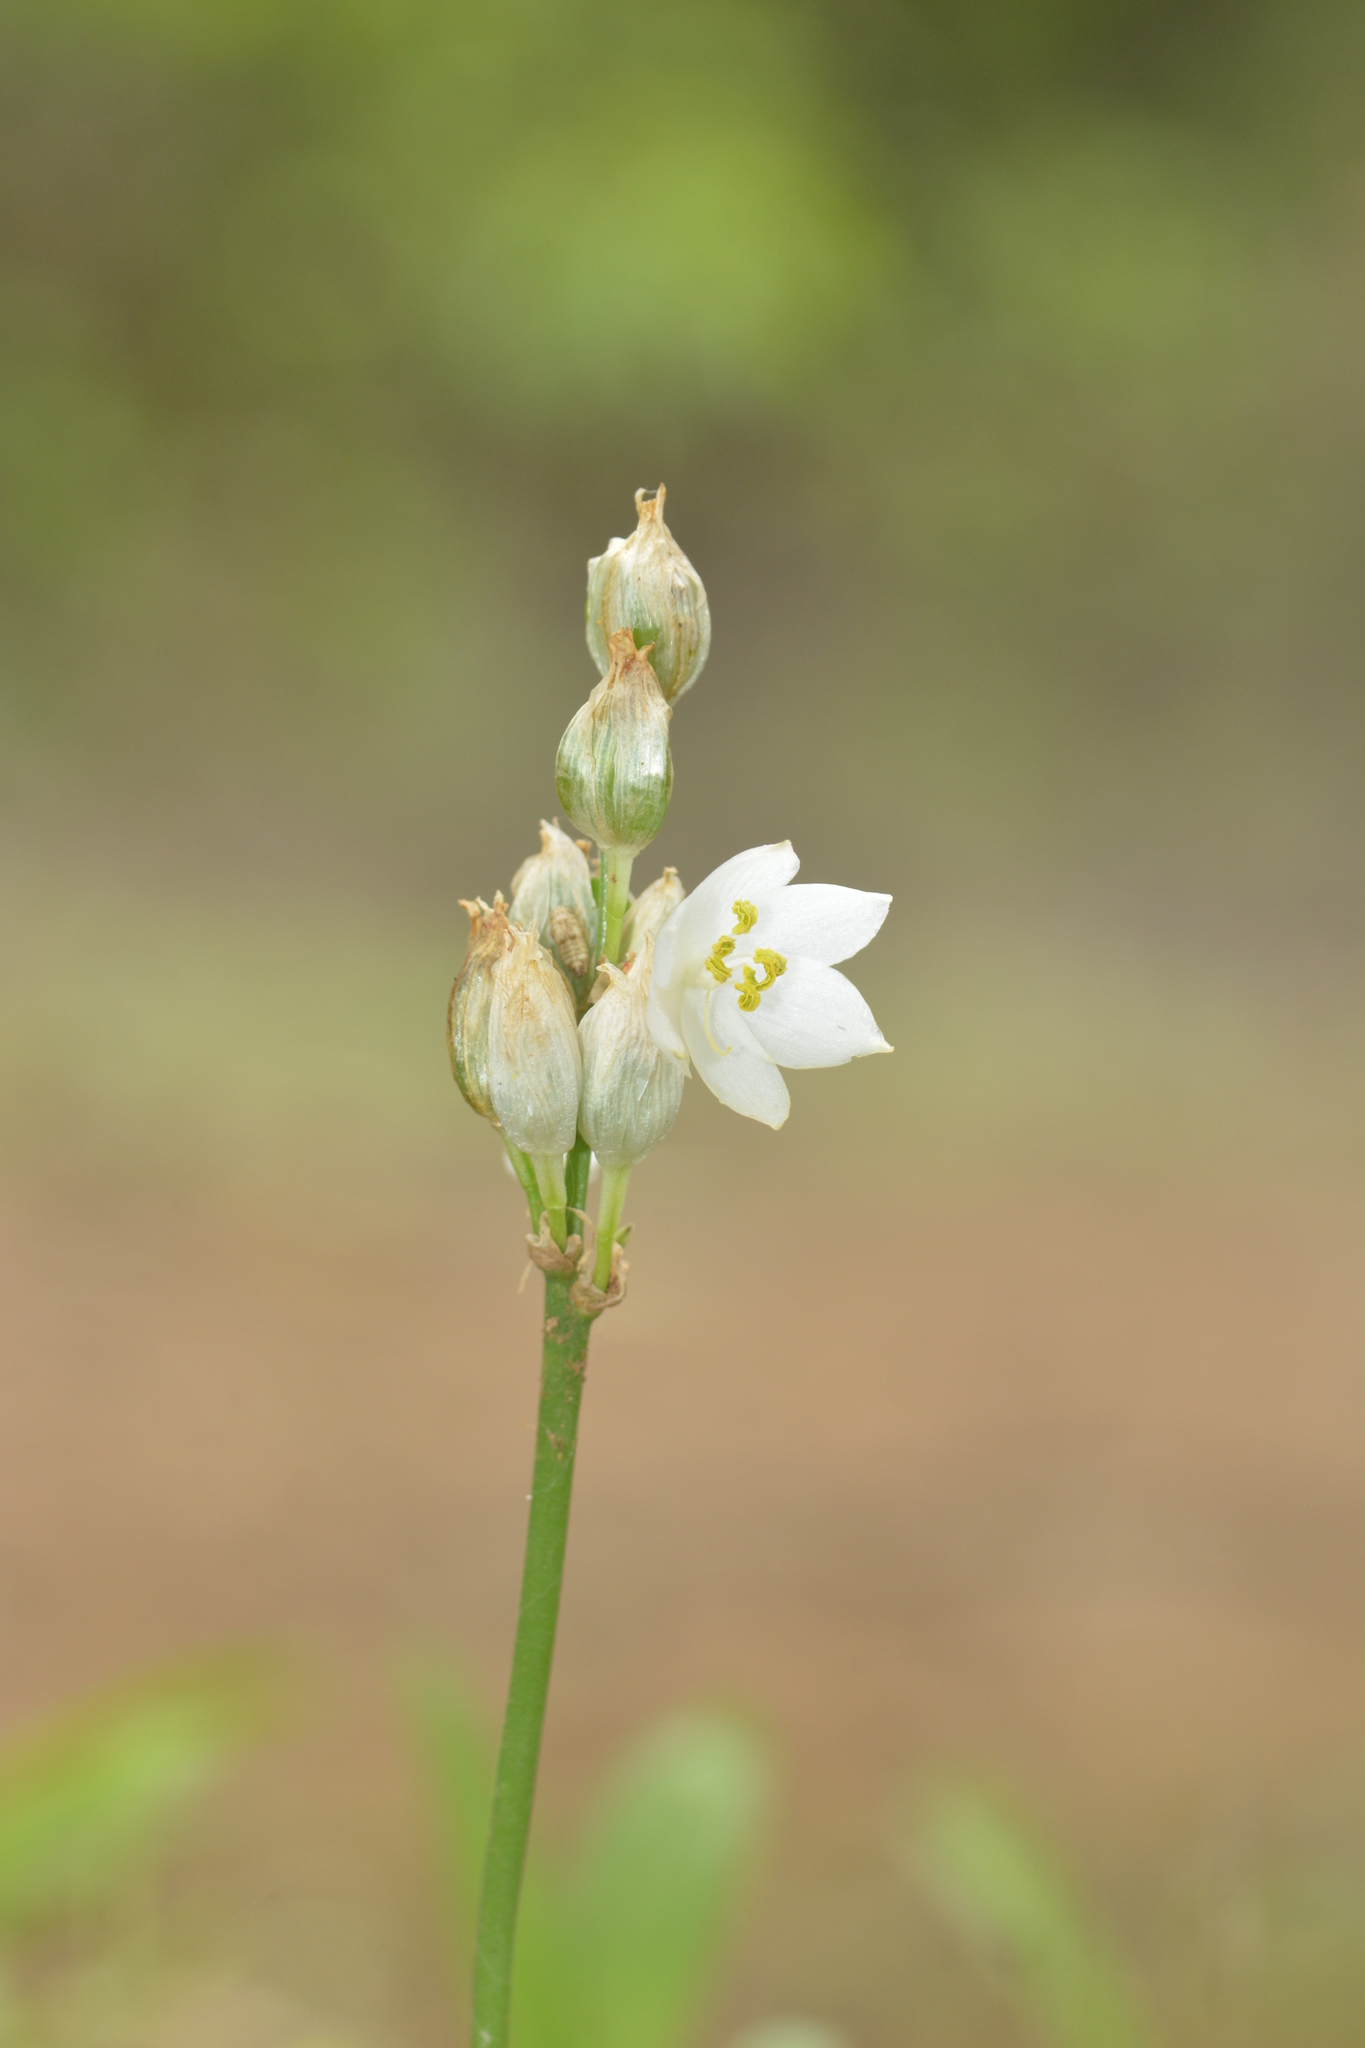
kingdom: Plantae
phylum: Tracheophyta
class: Liliopsida
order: Asparagales
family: Asparagaceae
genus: Chlorophytum
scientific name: Chlorophytum tuberosum
